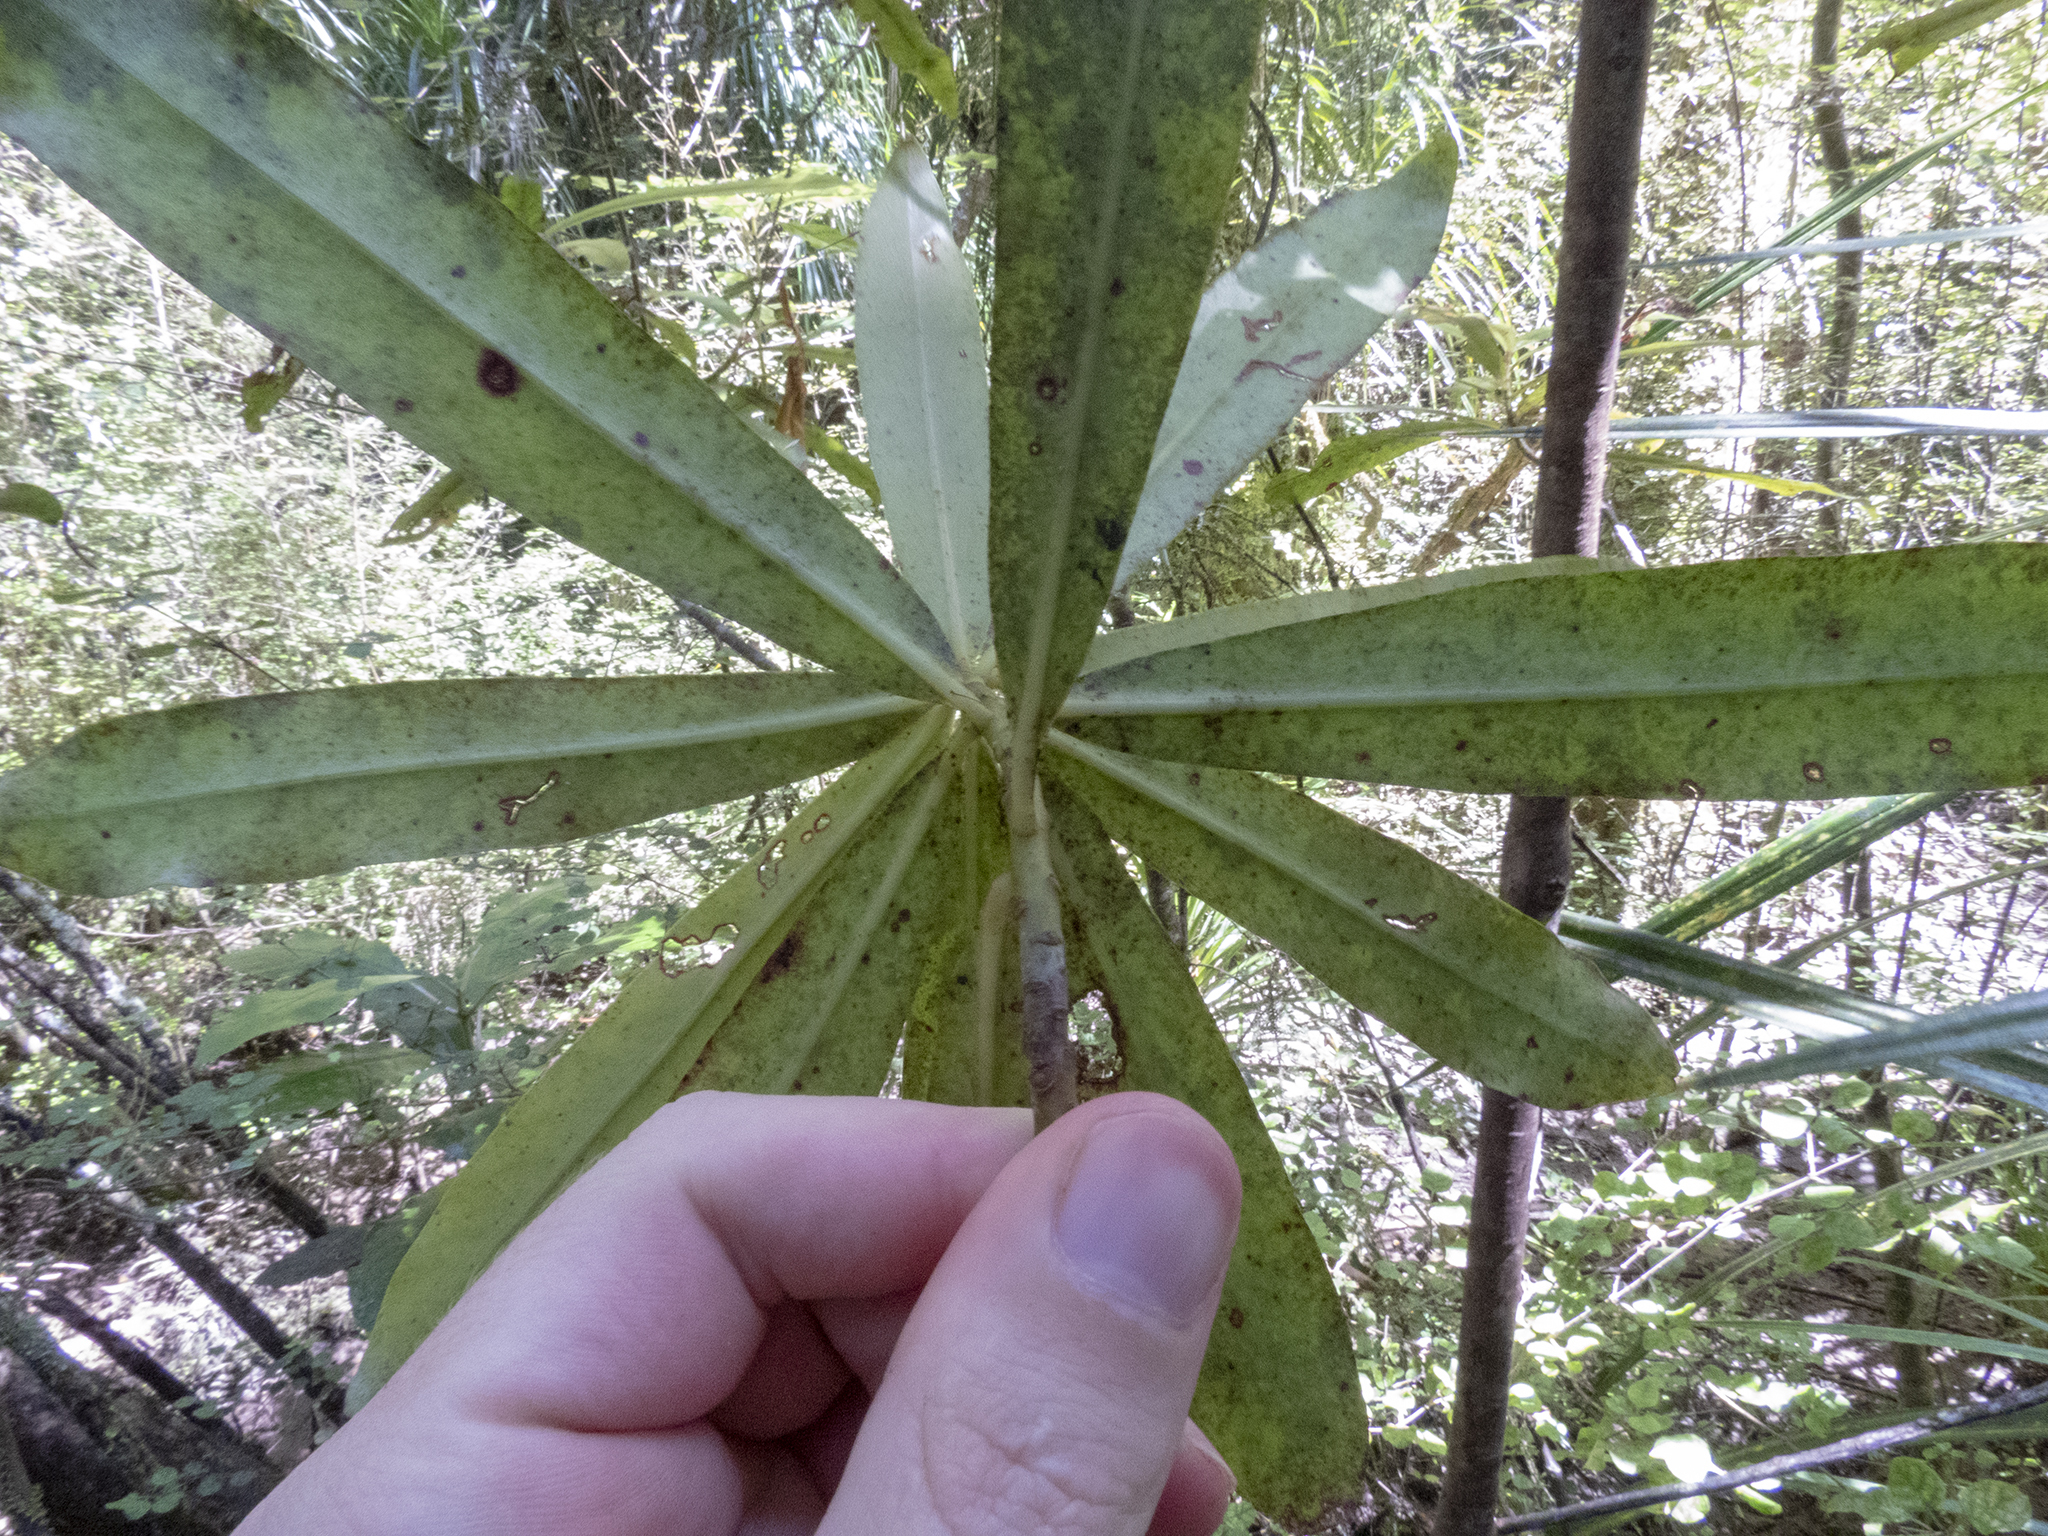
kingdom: Plantae
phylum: Tracheophyta
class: Magnoliopsida
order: Ericales
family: Primulaceae
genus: Myrsine
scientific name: Myrsine salicina
